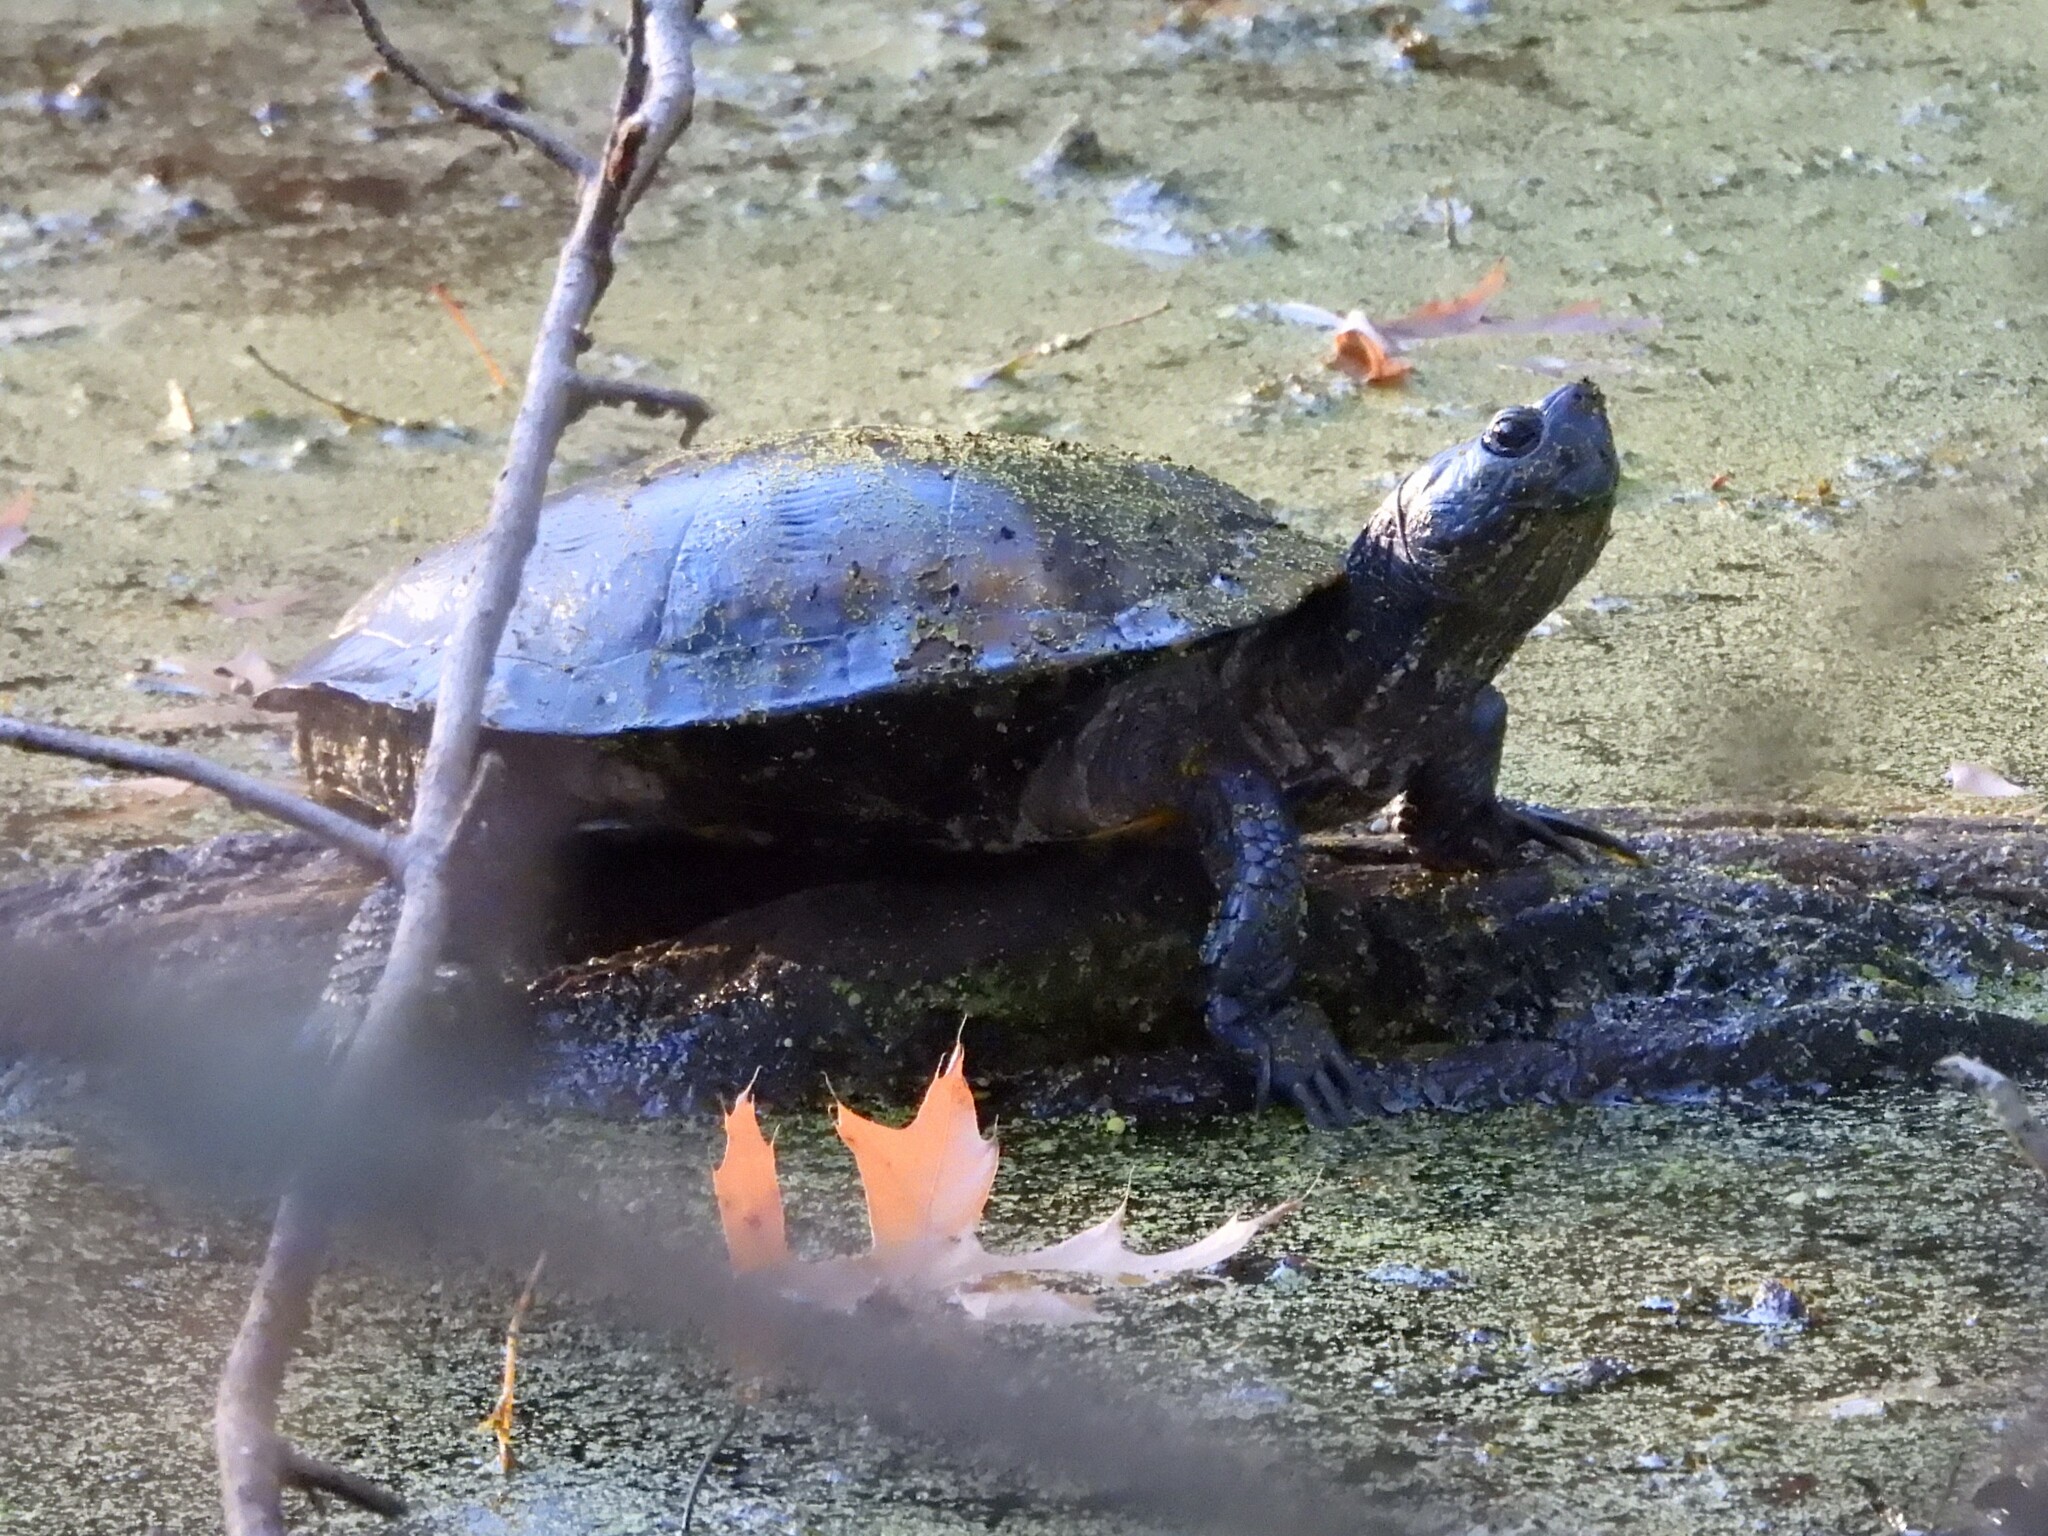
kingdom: Animalia
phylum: Chordata
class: Testudines
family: Emydidae
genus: Trachemys
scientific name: Trachemys scripta
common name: Slider
